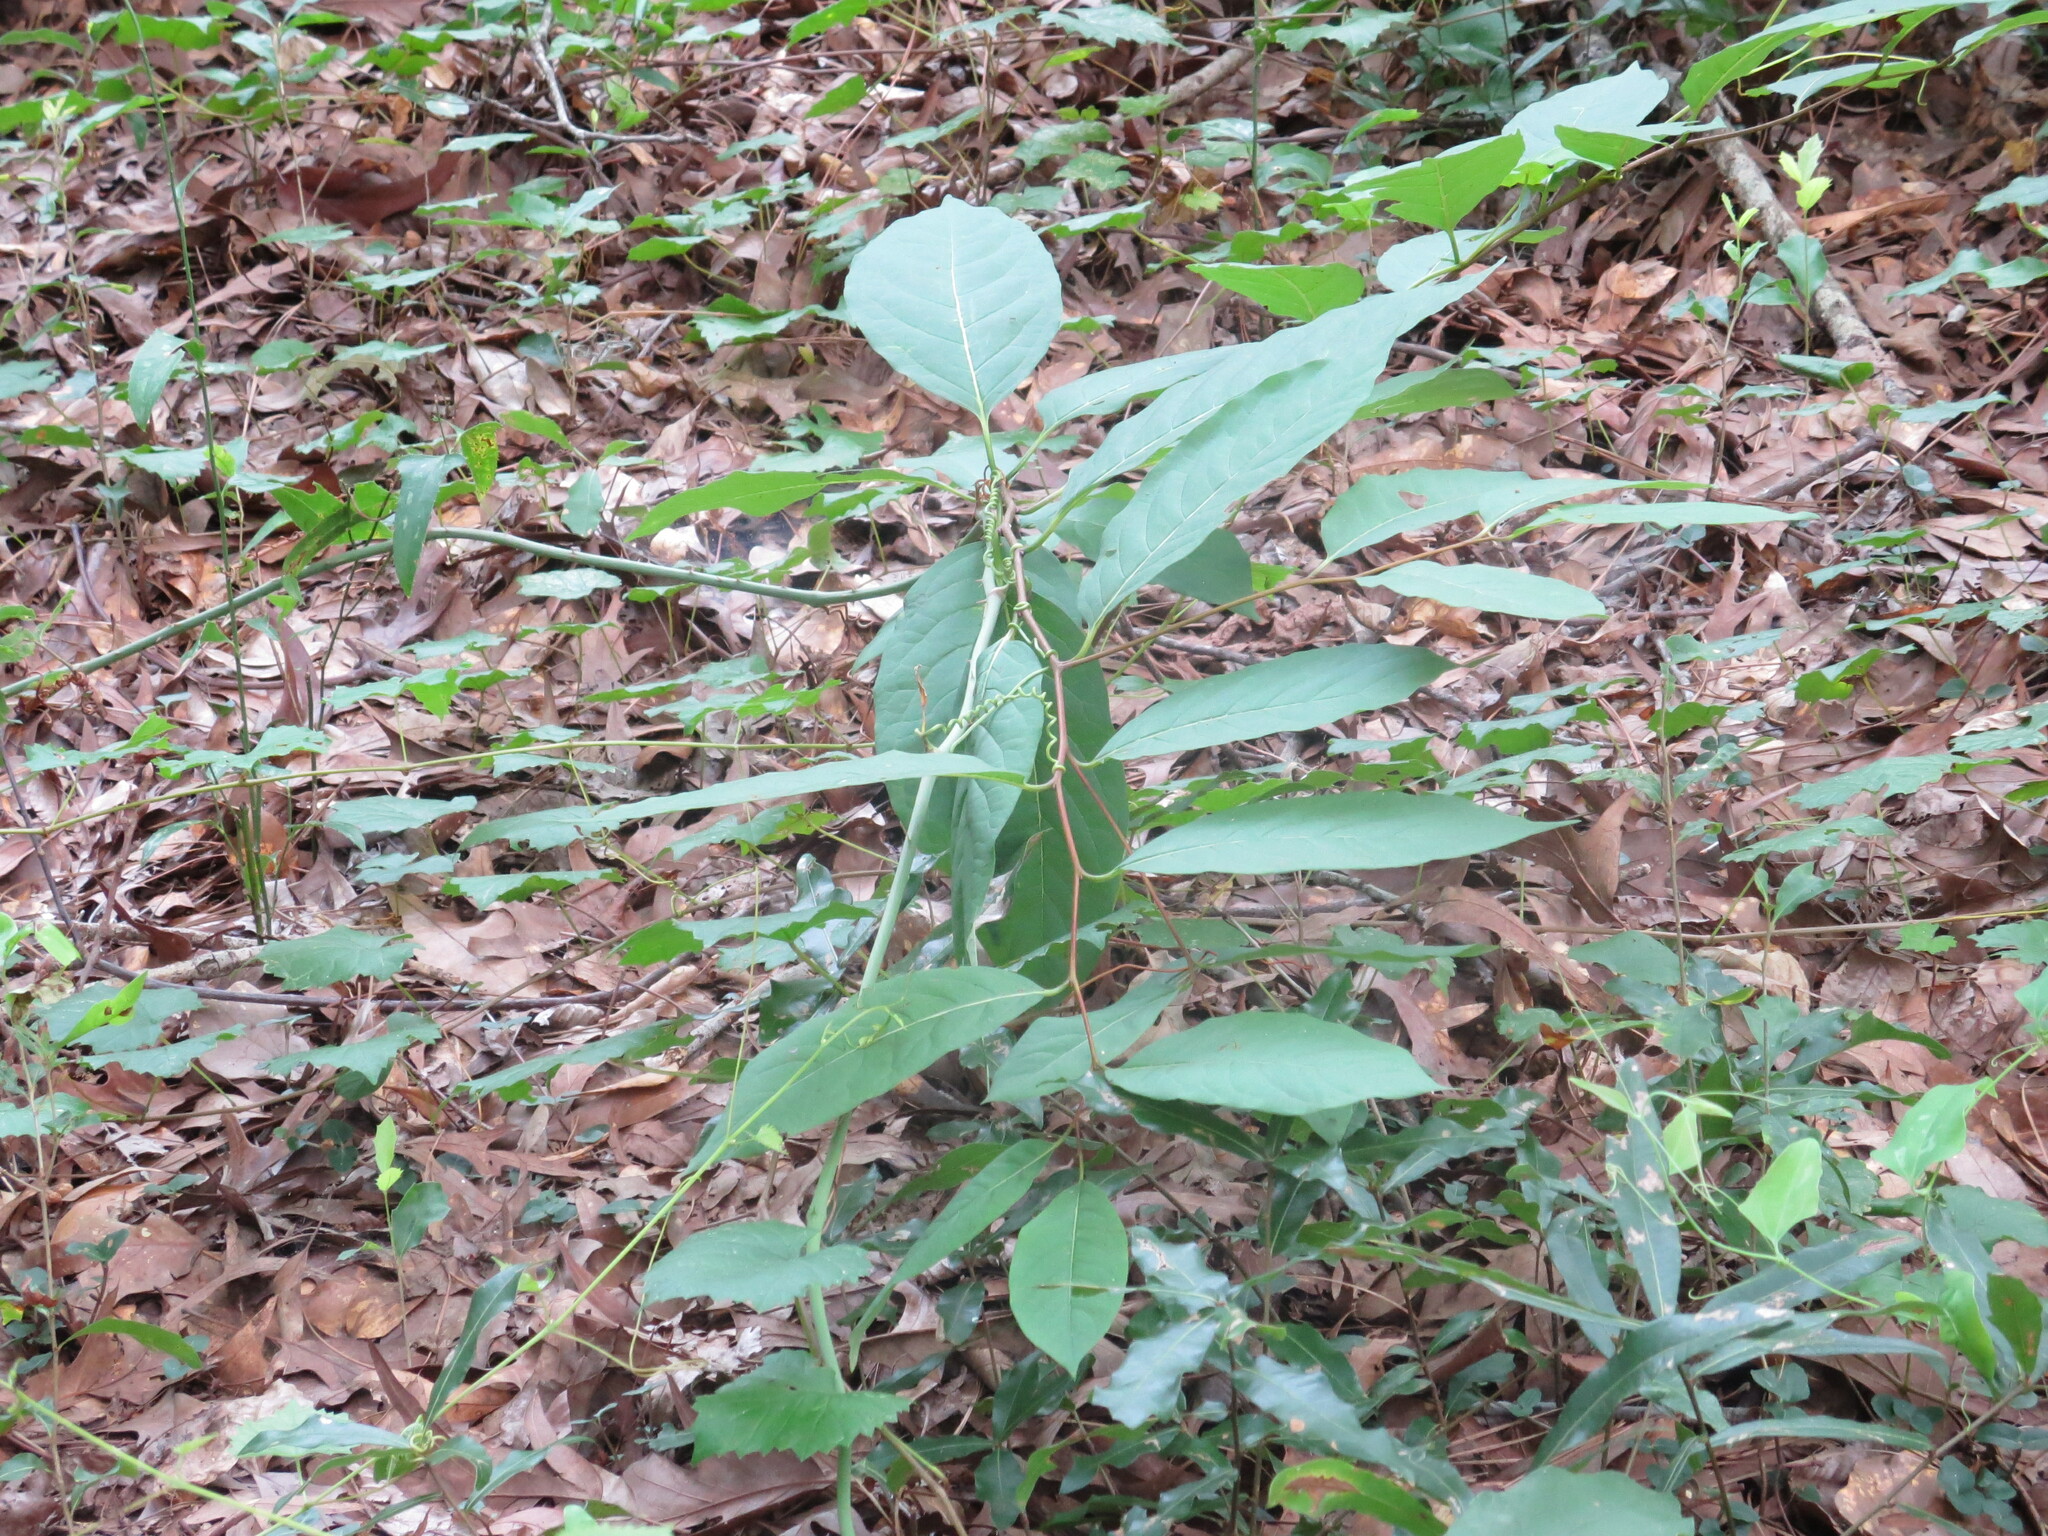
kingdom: Plantae
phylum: Tracheophyta
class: Magnoliopsida
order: Ericales
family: Ebenaceae
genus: Diospyros
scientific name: Diospyros virginiana
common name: Persimmon
